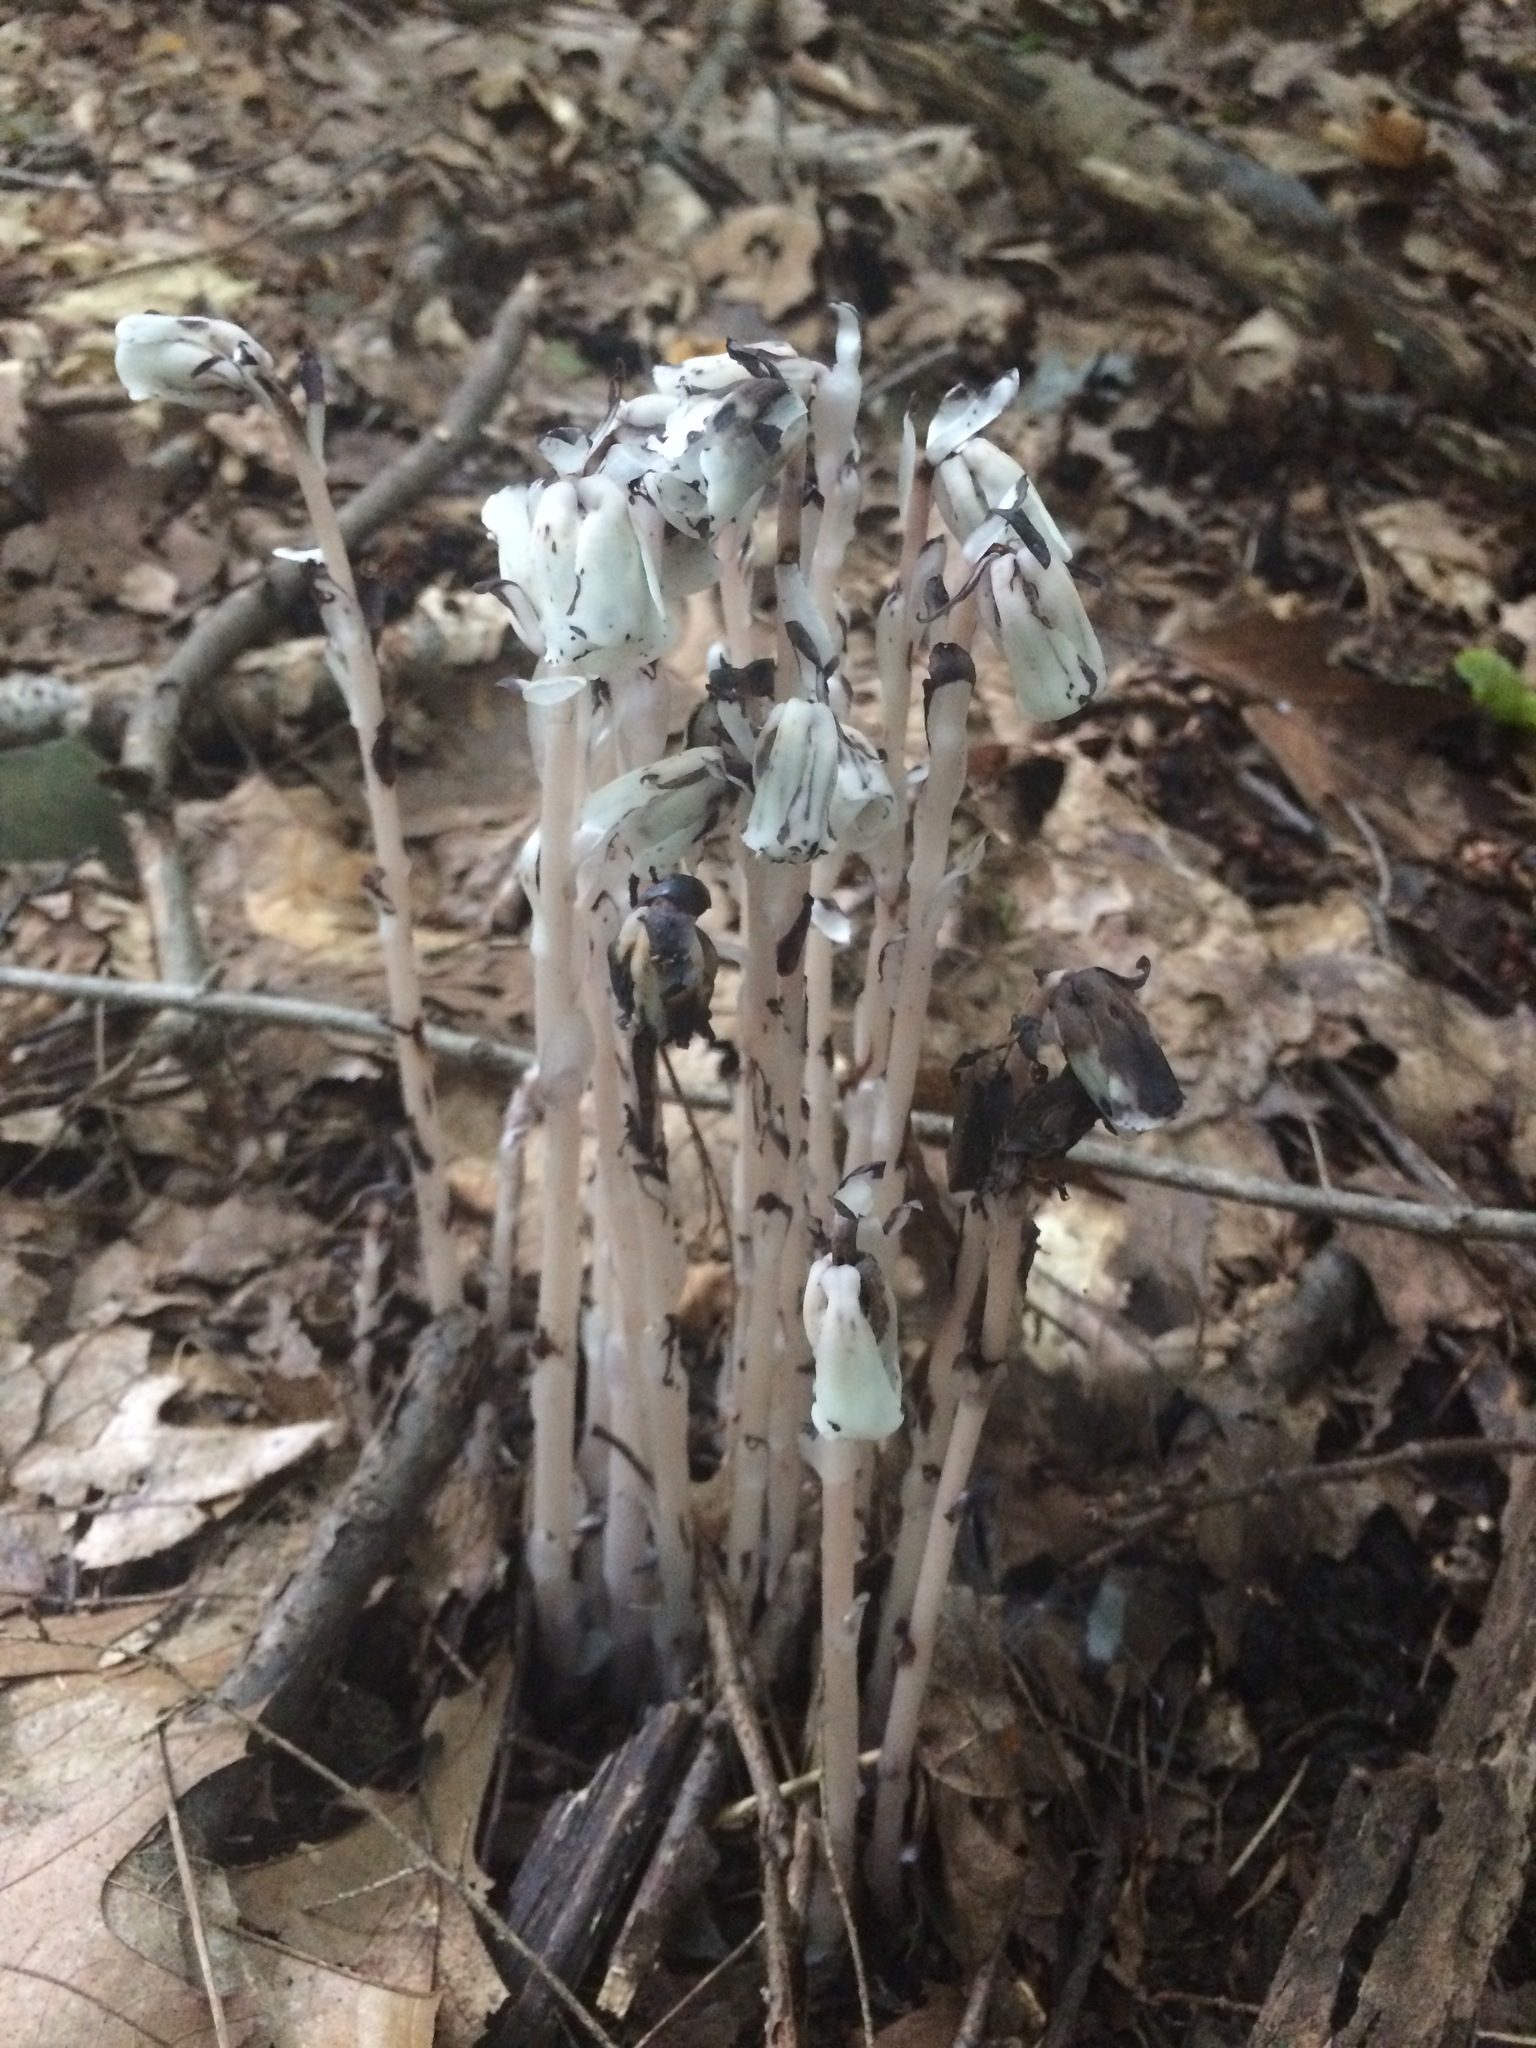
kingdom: Plantae
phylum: Tracheophyta
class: Magnoliopsida
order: Ericales
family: Ericaceae
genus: Monotropa
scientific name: Monotropa uniflora
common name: Convulsion root
